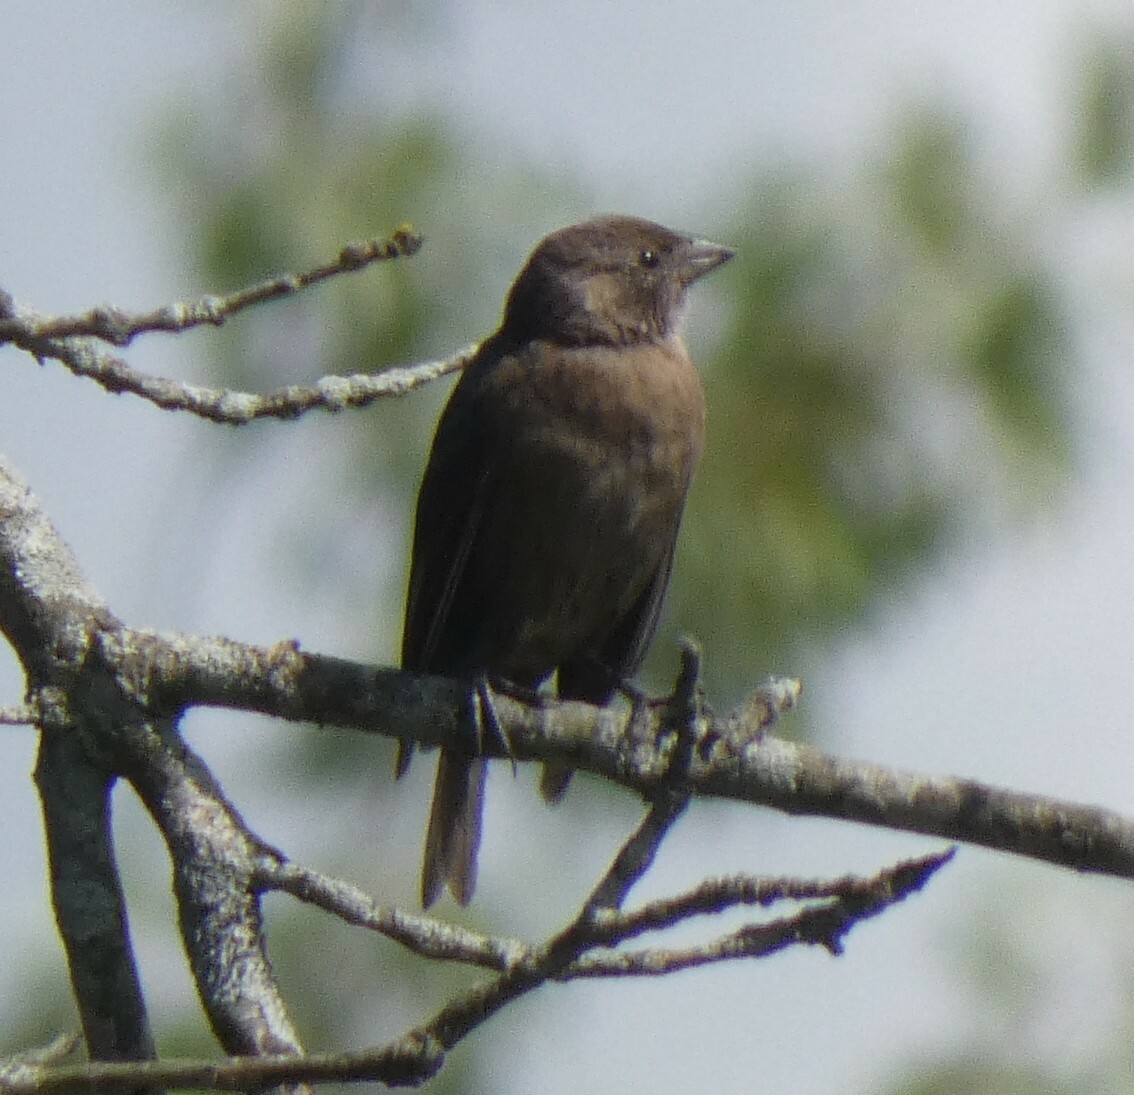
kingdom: Animalia
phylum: Chordata
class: Aves
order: Passeriformes
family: Icteridae
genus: Molothrus
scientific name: Molothrus ater
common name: Brown-headed cowbird
